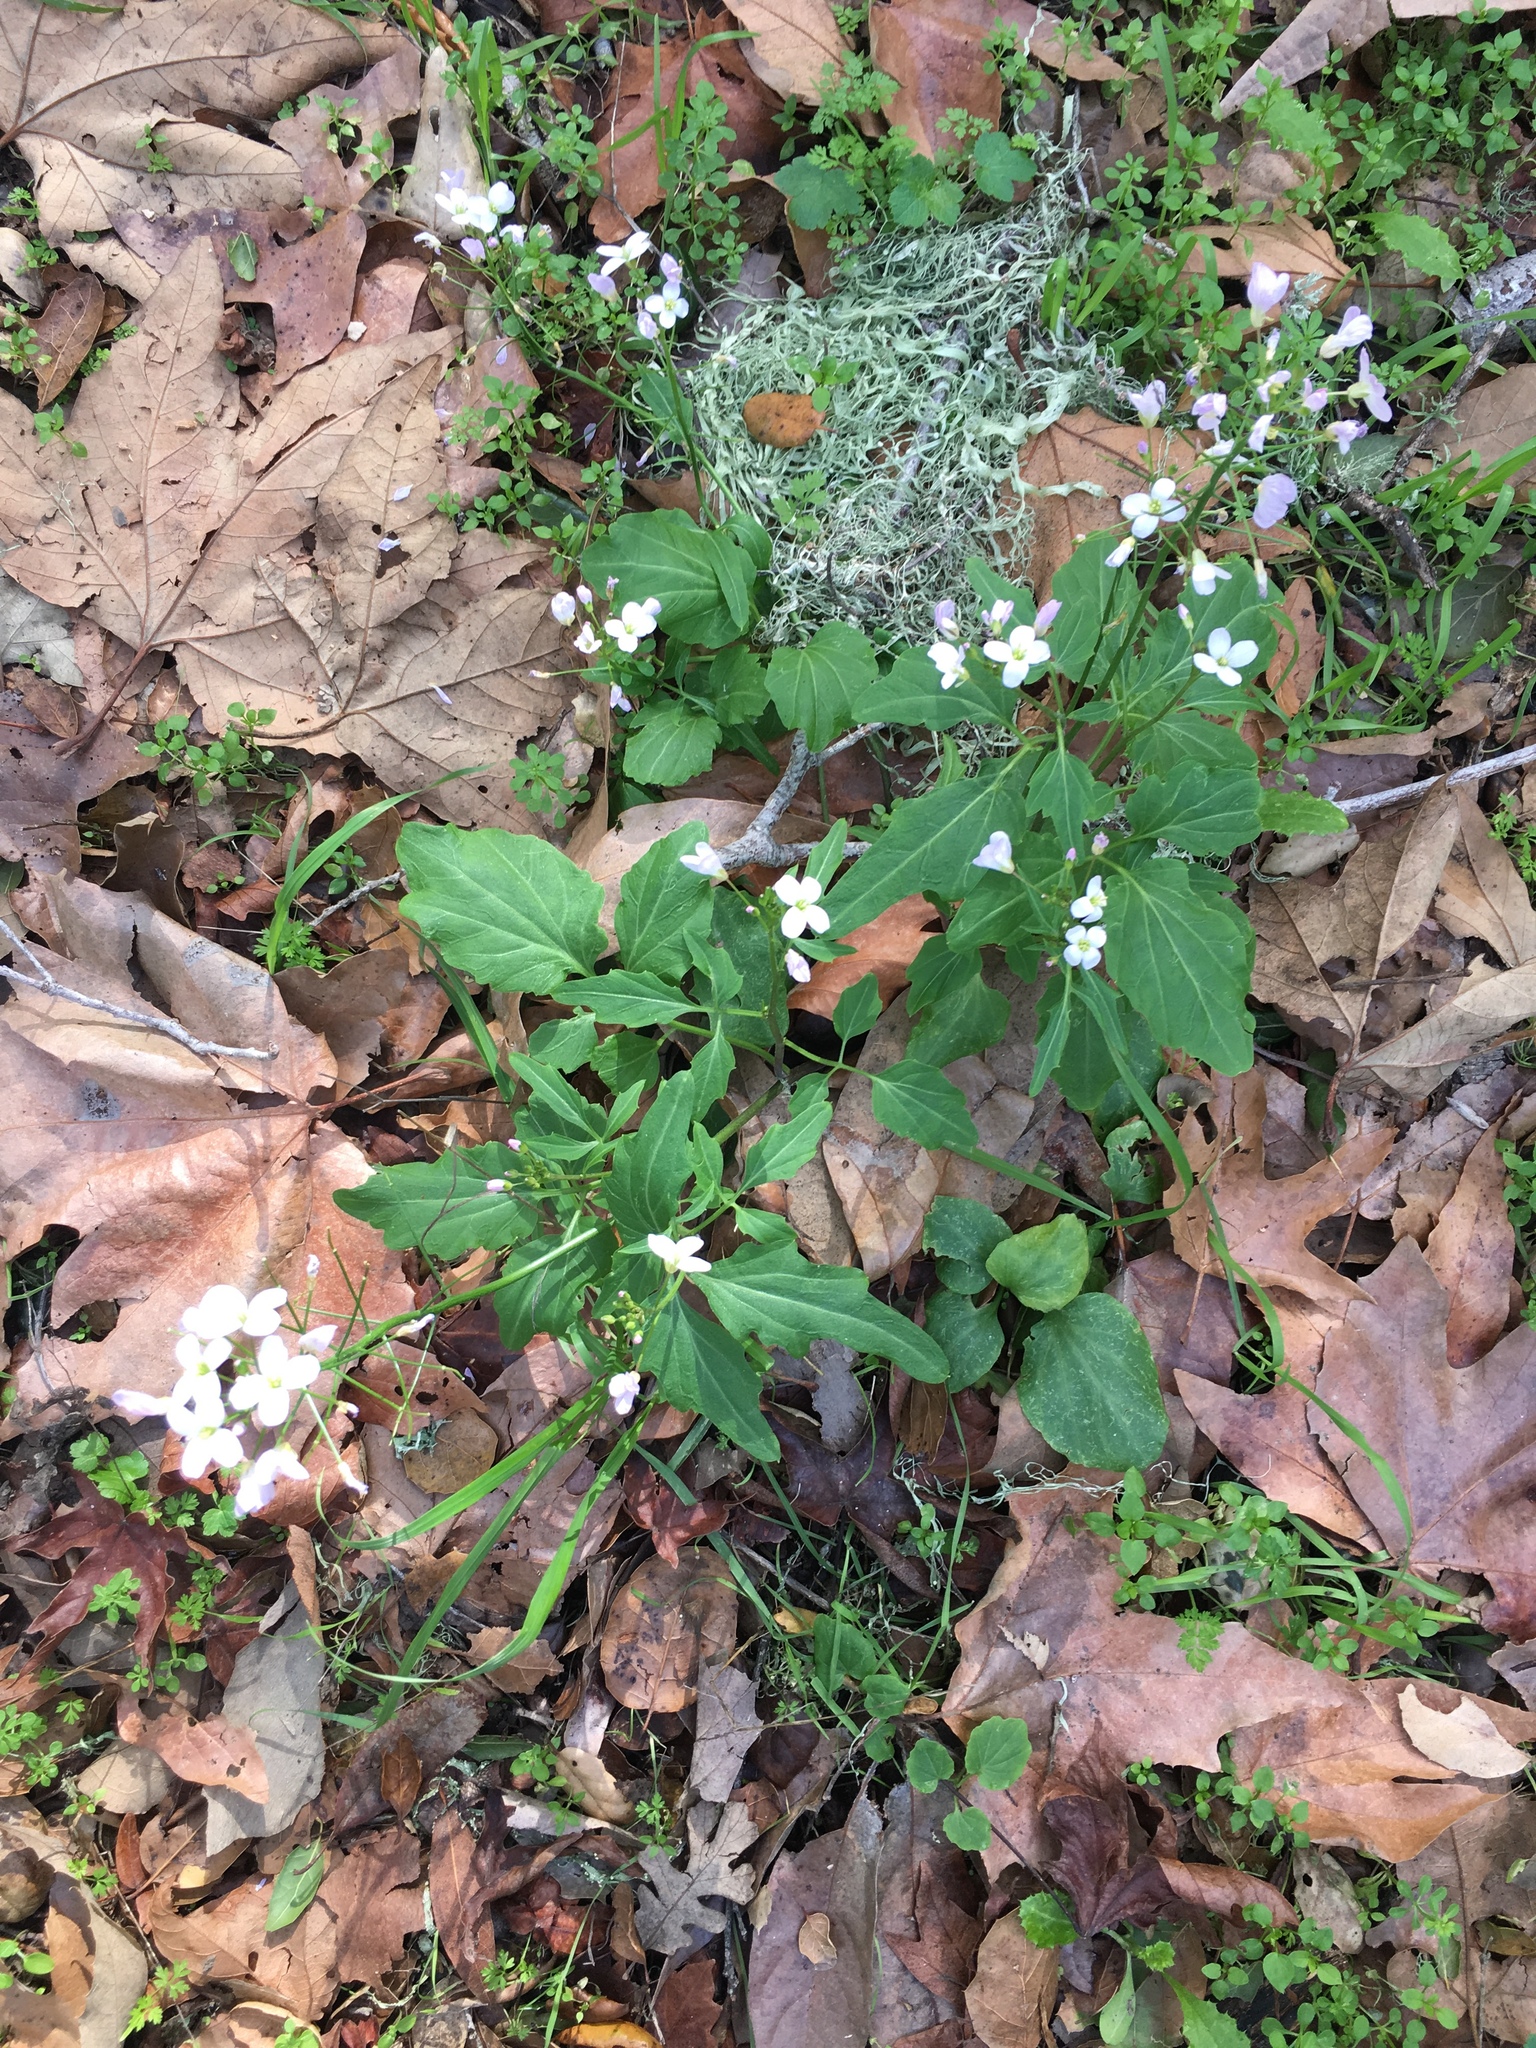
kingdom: Plantae
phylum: Tracheophyta
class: Magnoliopsida
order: Brassicales
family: Brassicaceae
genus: Cardamine
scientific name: Cardamine californica
